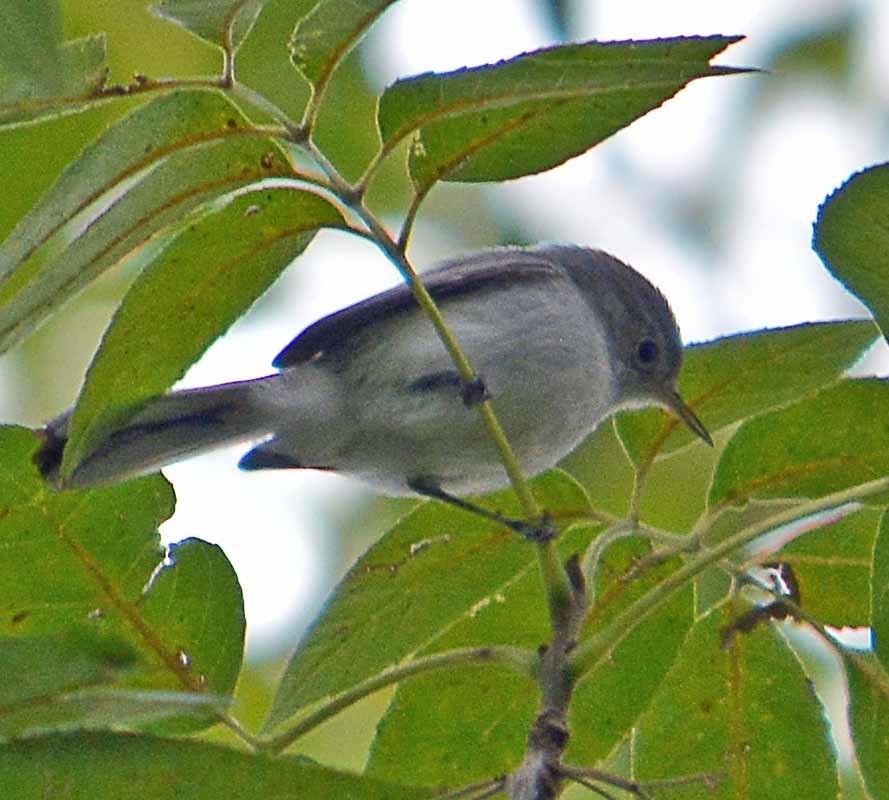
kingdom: Animalia
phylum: Chordata
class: Aves
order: Passeriformes
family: Polioptilidae
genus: Polioptila
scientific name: Polioptila caerulea
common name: Blue-gray gnatcatcher
